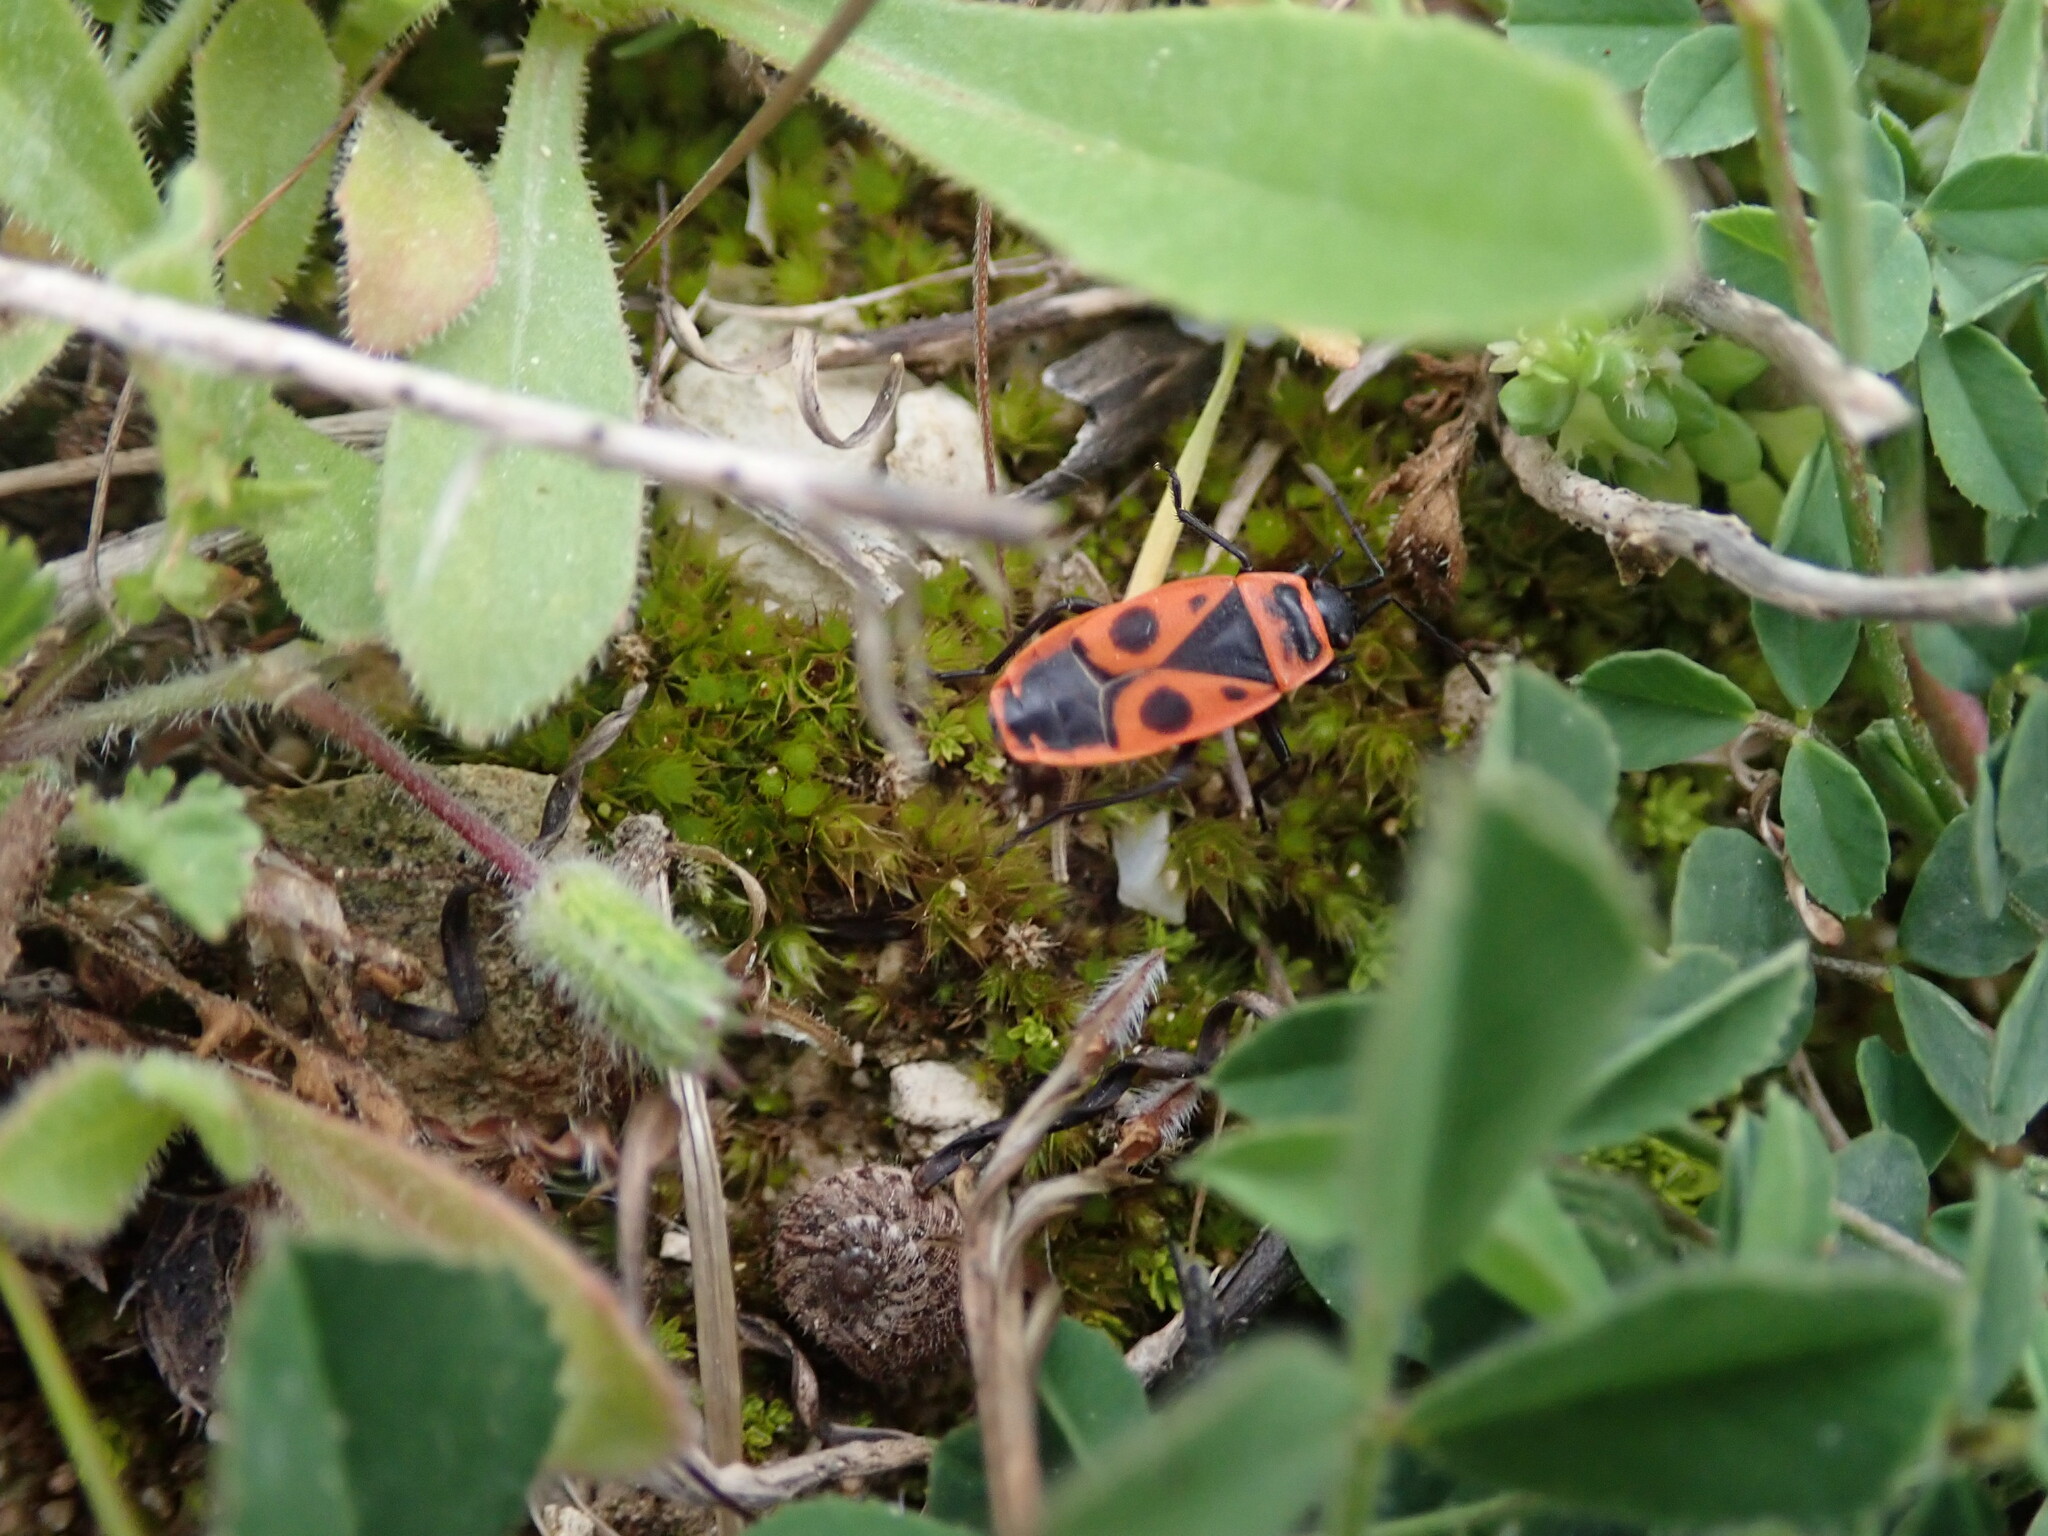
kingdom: Animalia
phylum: Arthropoda
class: Insecta
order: Hemiptera
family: Pyrrhocoridae
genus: Pyrrhocoris
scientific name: Pyrrhocoris apterus
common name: Firebug
